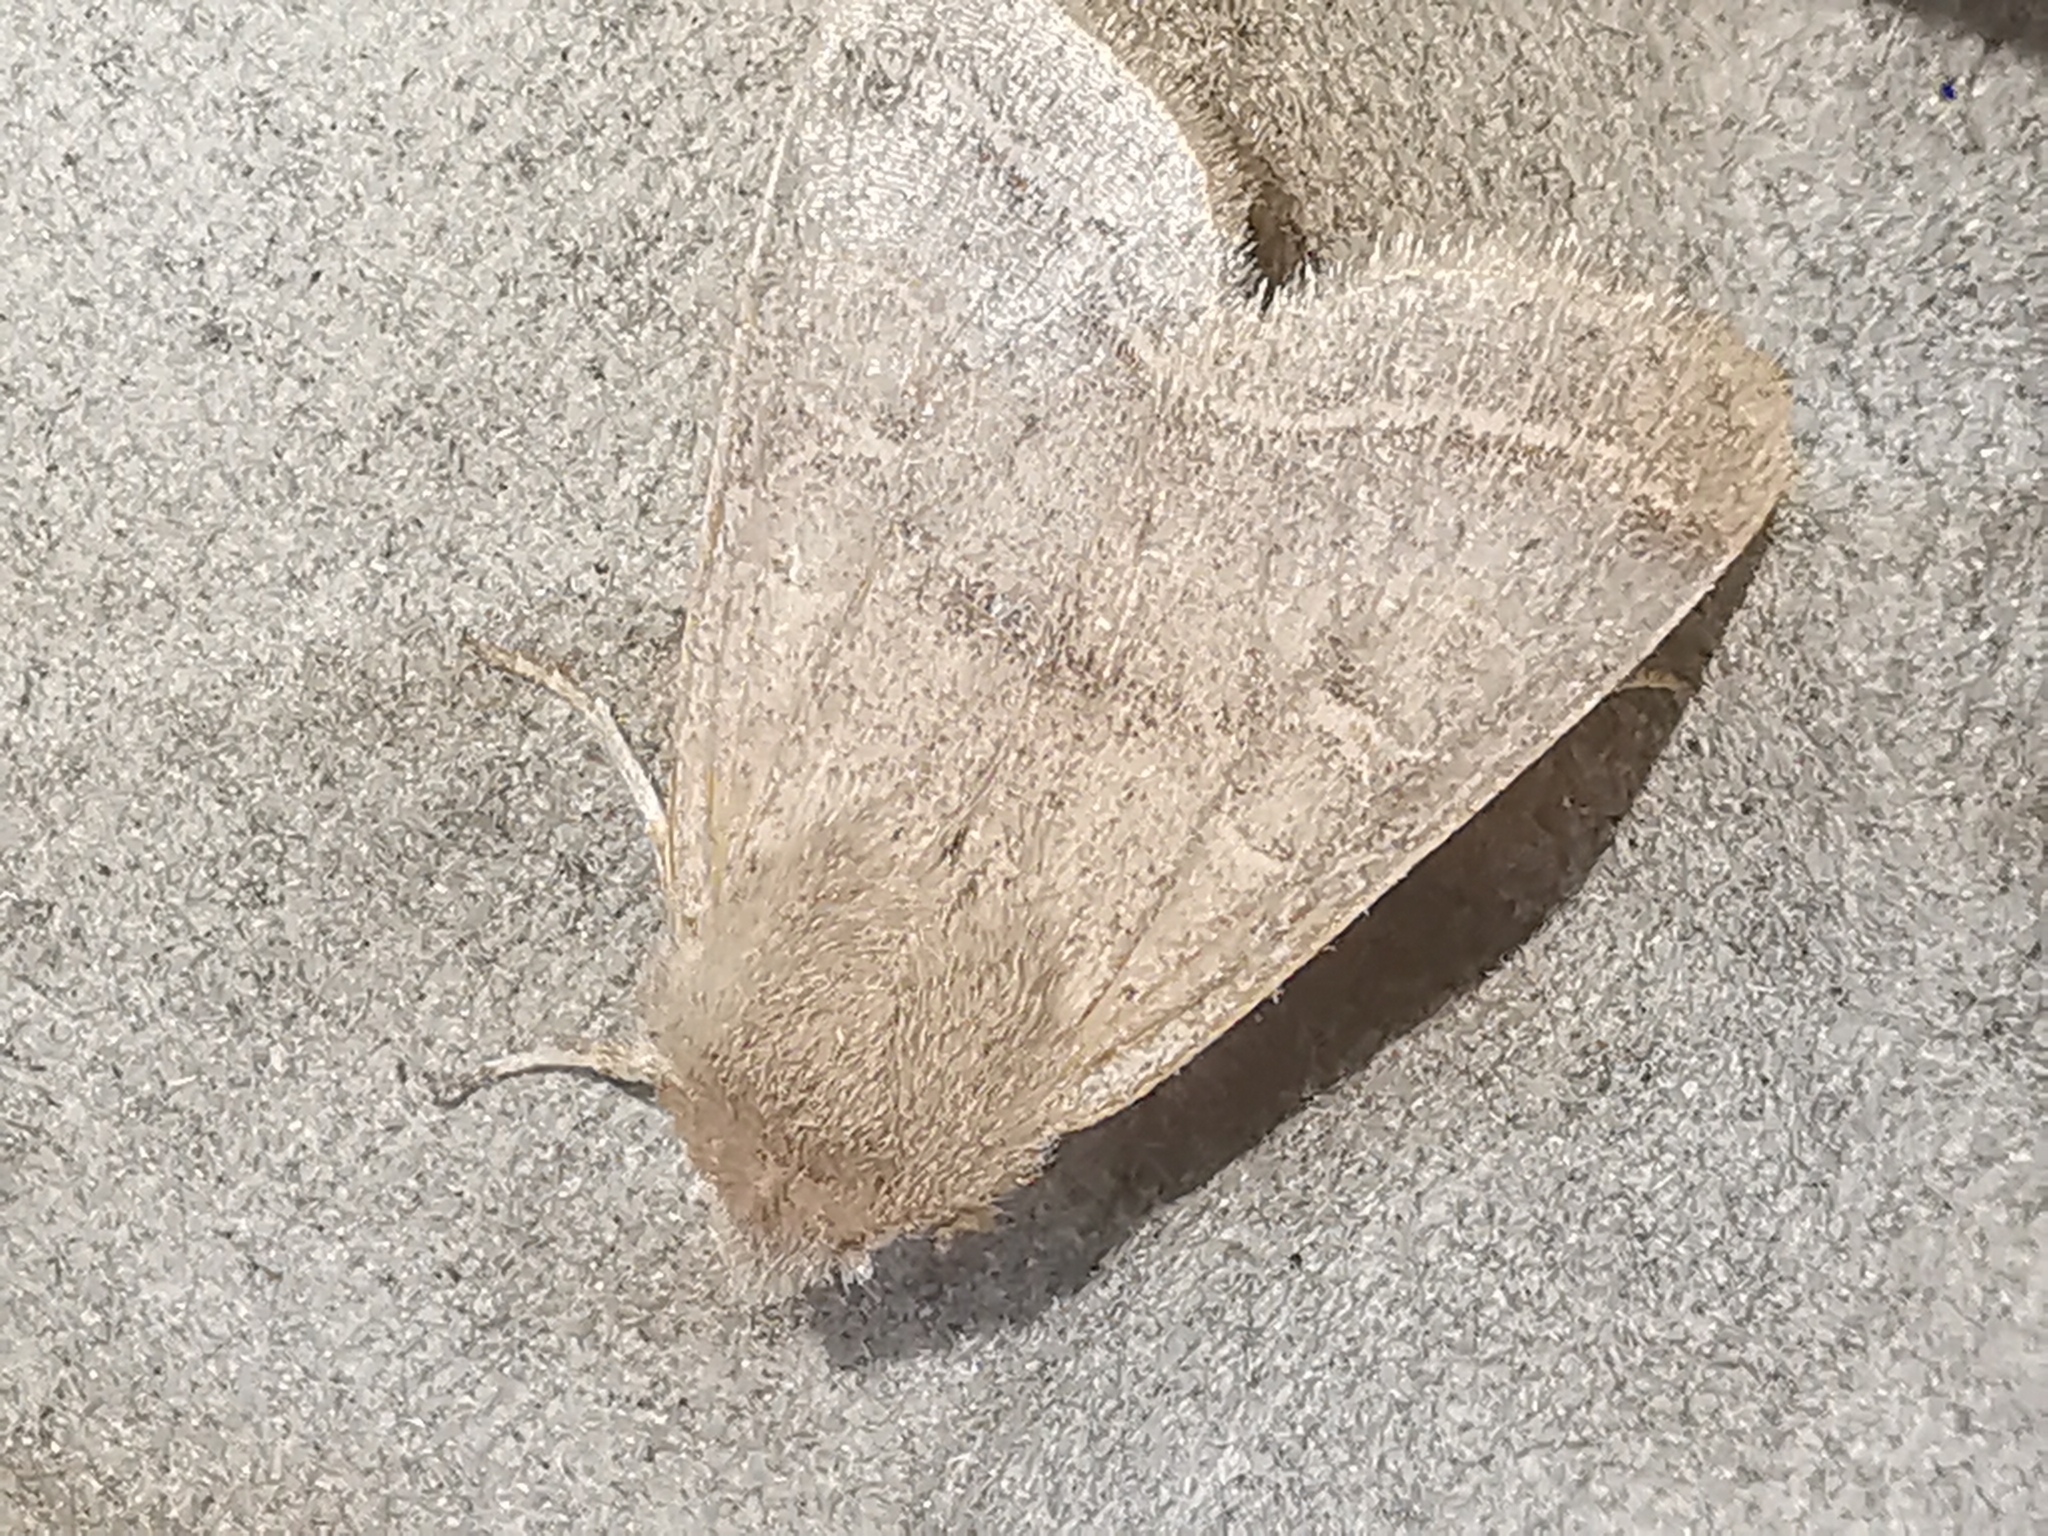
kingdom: Animalia
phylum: Arthropoda
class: Insecta
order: Lepidoptera
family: Noctuidae
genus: Orthosia
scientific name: Orthosia cerasi
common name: Common quaker
